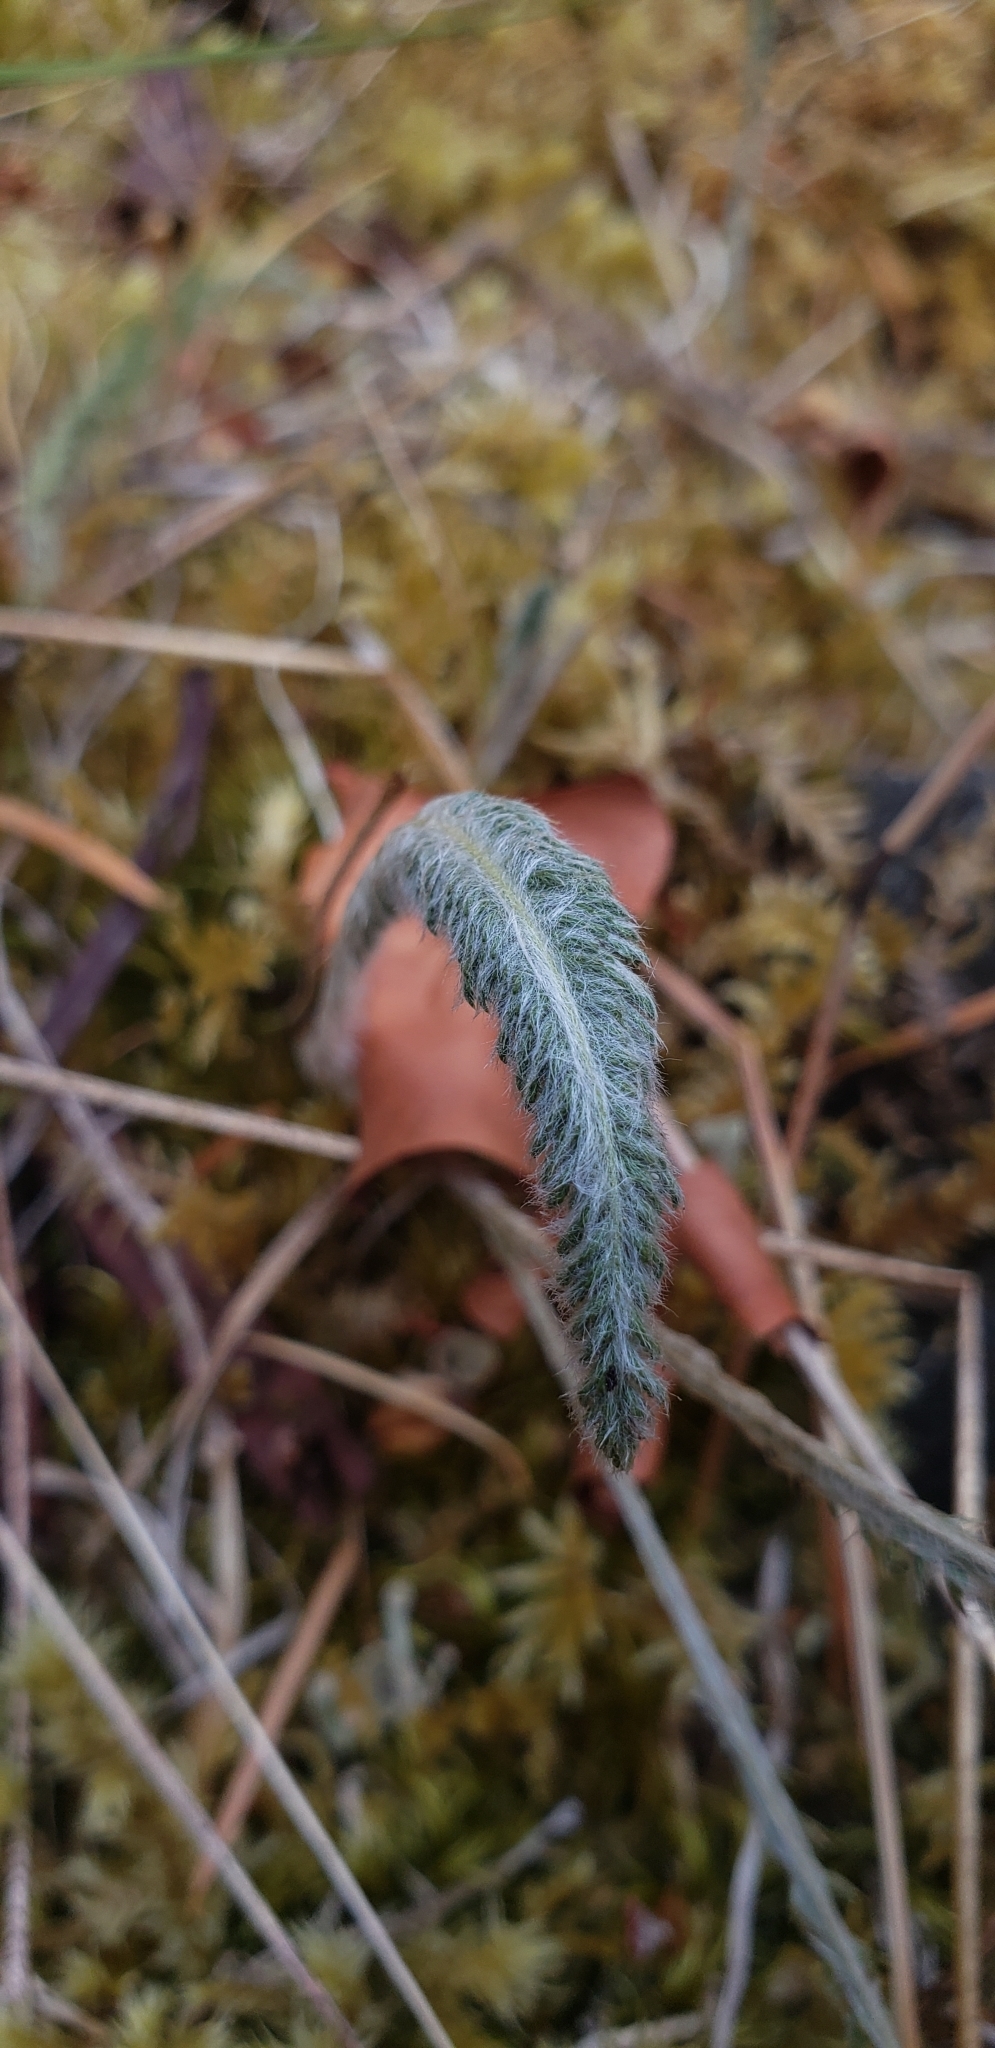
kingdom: Plantae
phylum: Tracheophyta
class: Magnoliopsida
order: Asterales
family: Asteraceae
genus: Achillea
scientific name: Achillea millefolium
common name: Yarrow
